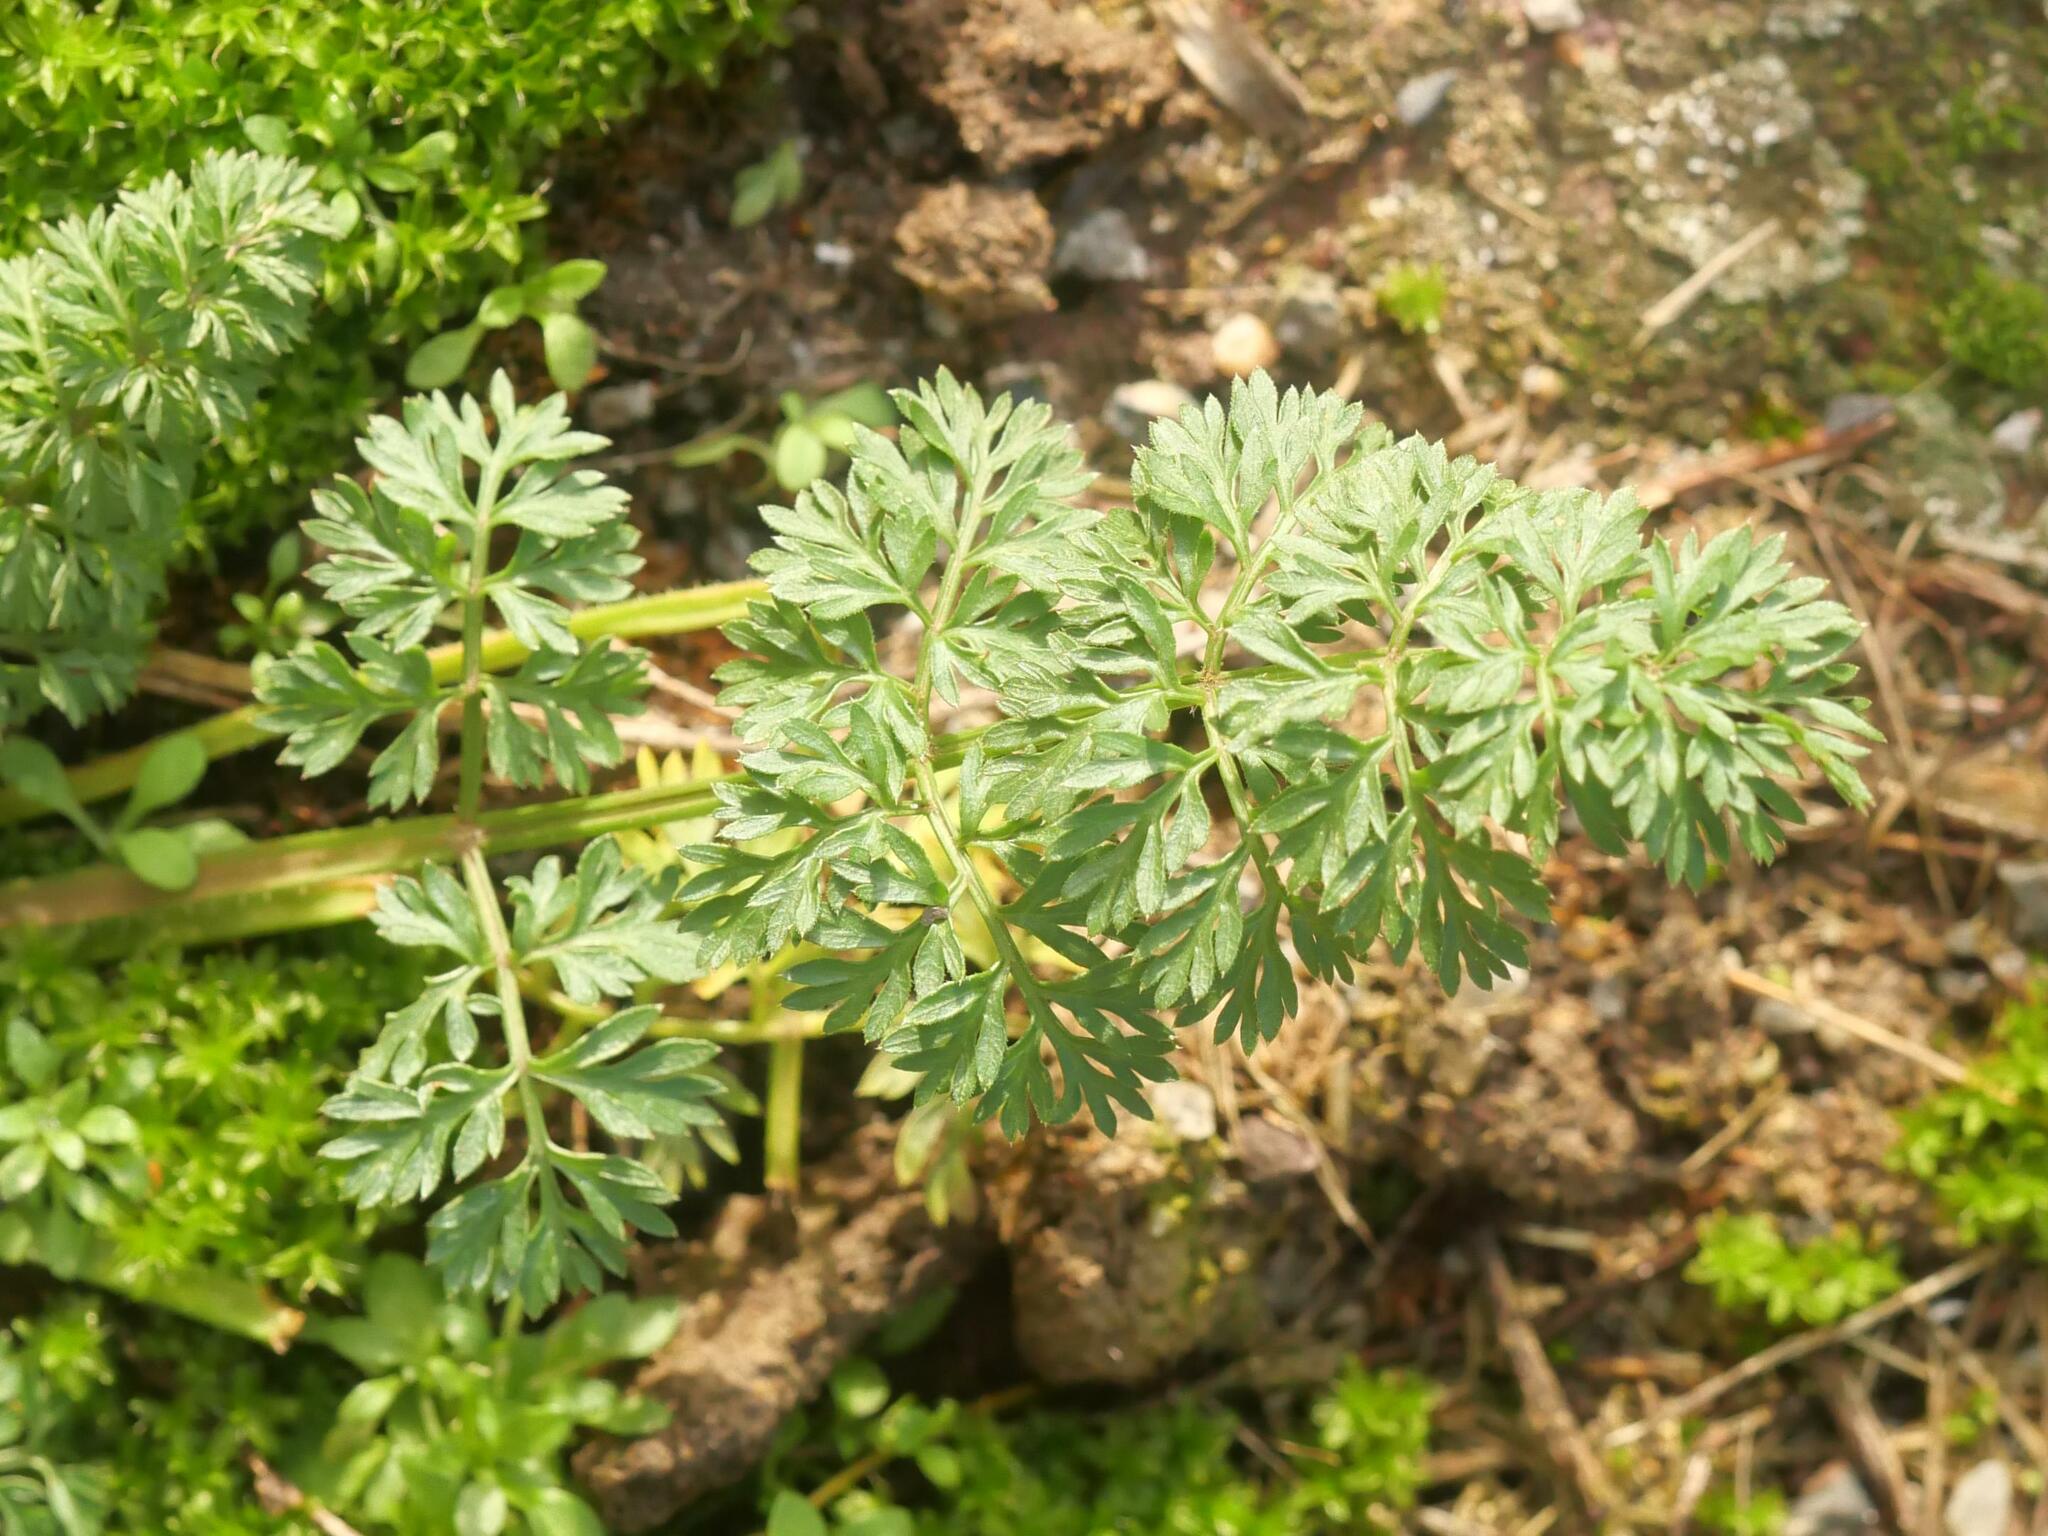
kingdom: Plantae
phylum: Tracheophyta
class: Magnoliopsida
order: Apiales
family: Apiaceae
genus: Daucus
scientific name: Daucus carota
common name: Wild carrot
